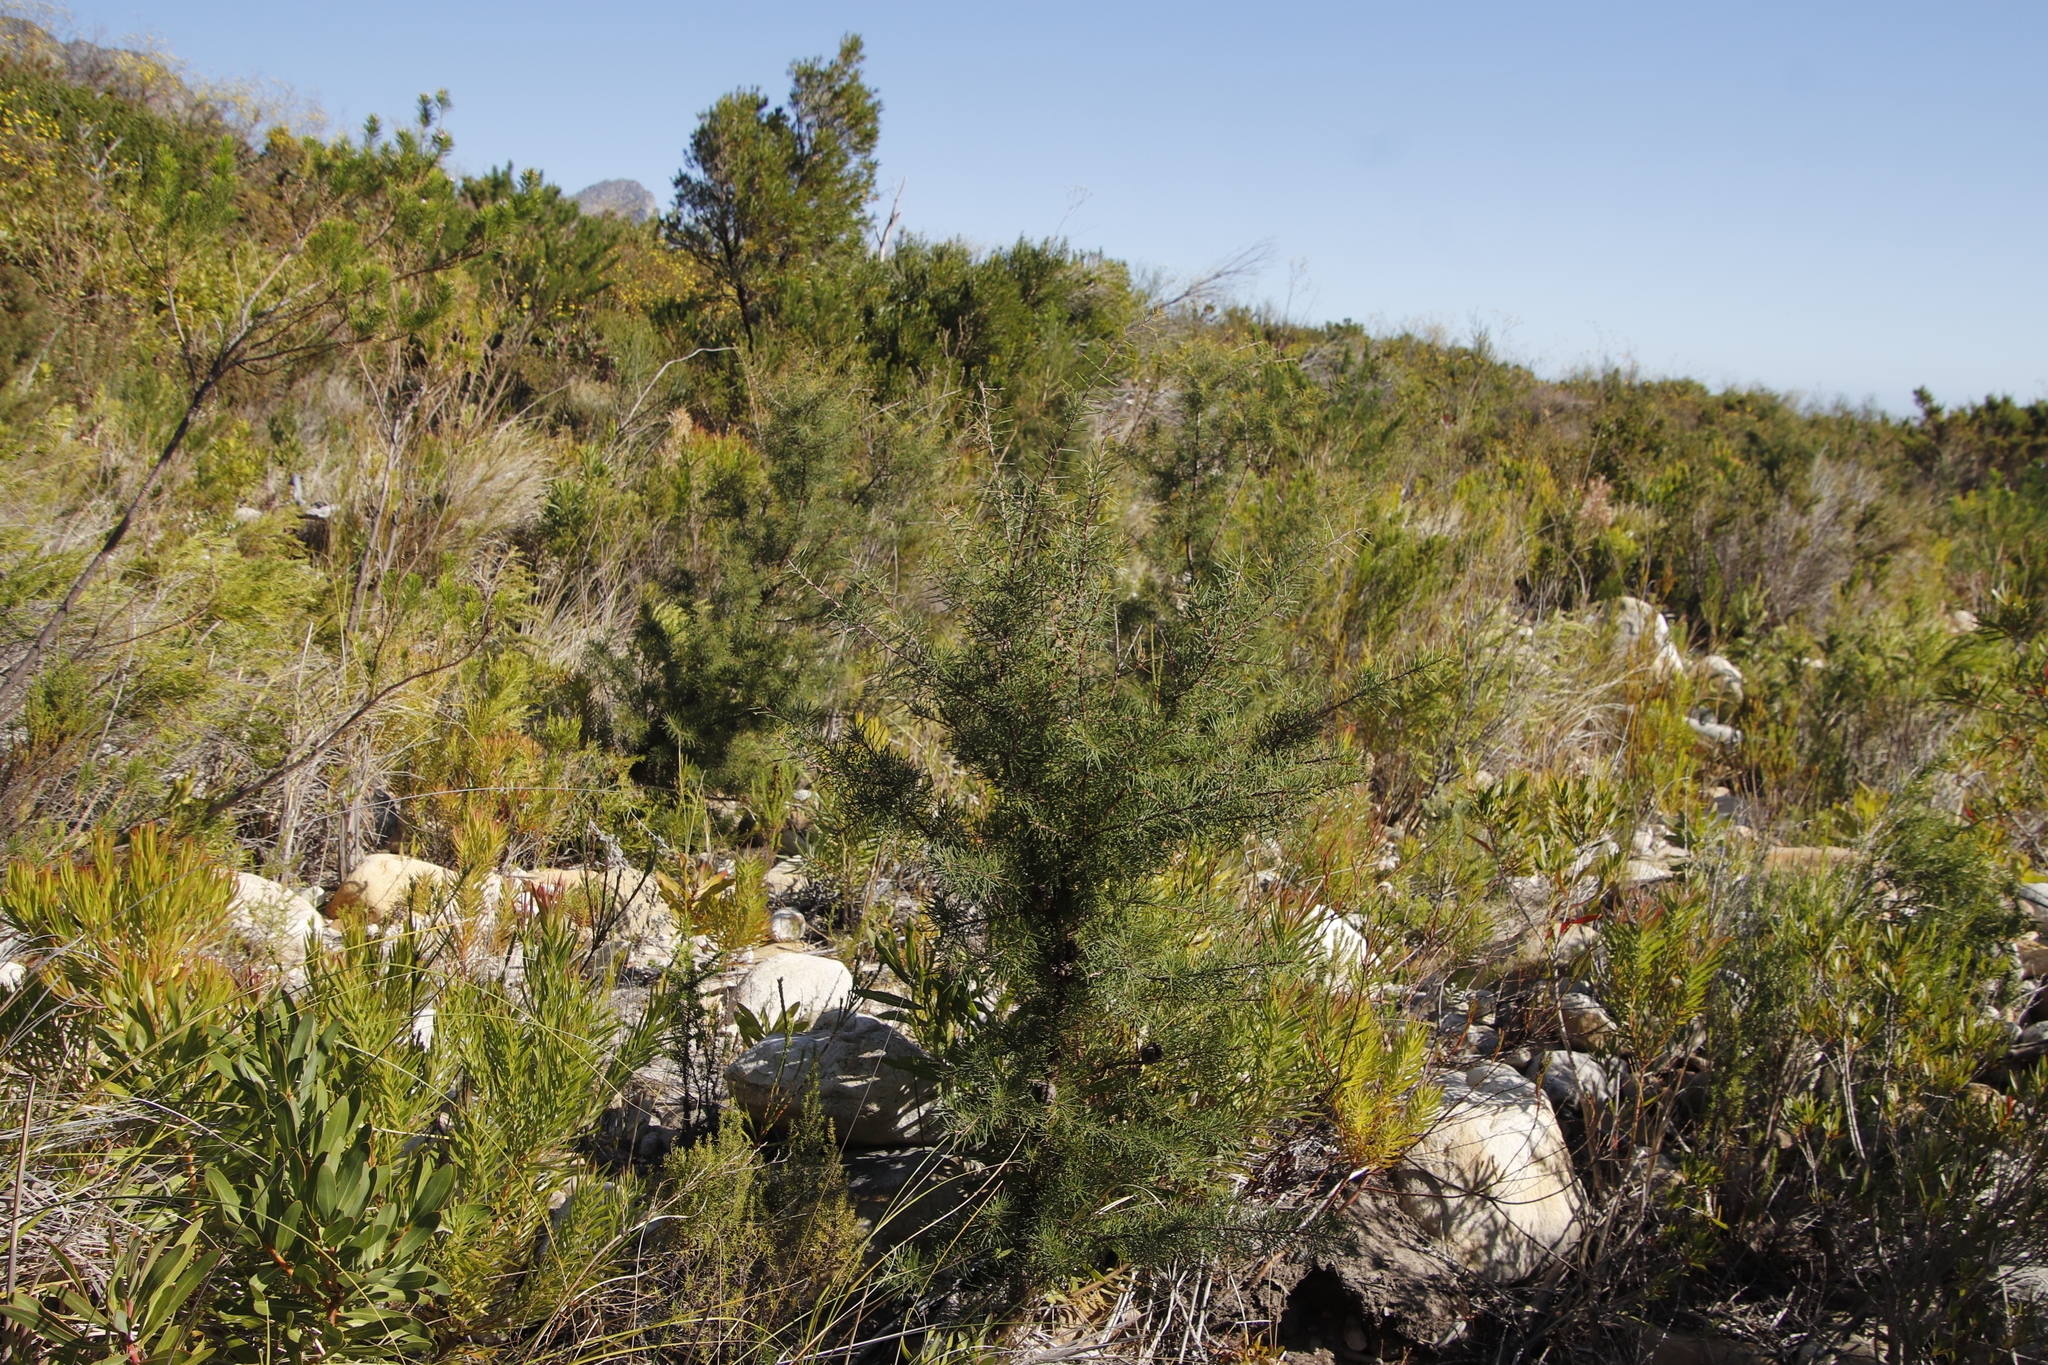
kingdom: Plantae
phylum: Tracheophyta
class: Magnoliopsida
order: Proteales
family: Proteaceae
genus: Hakea
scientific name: Hakea sericea
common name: Needle bush
